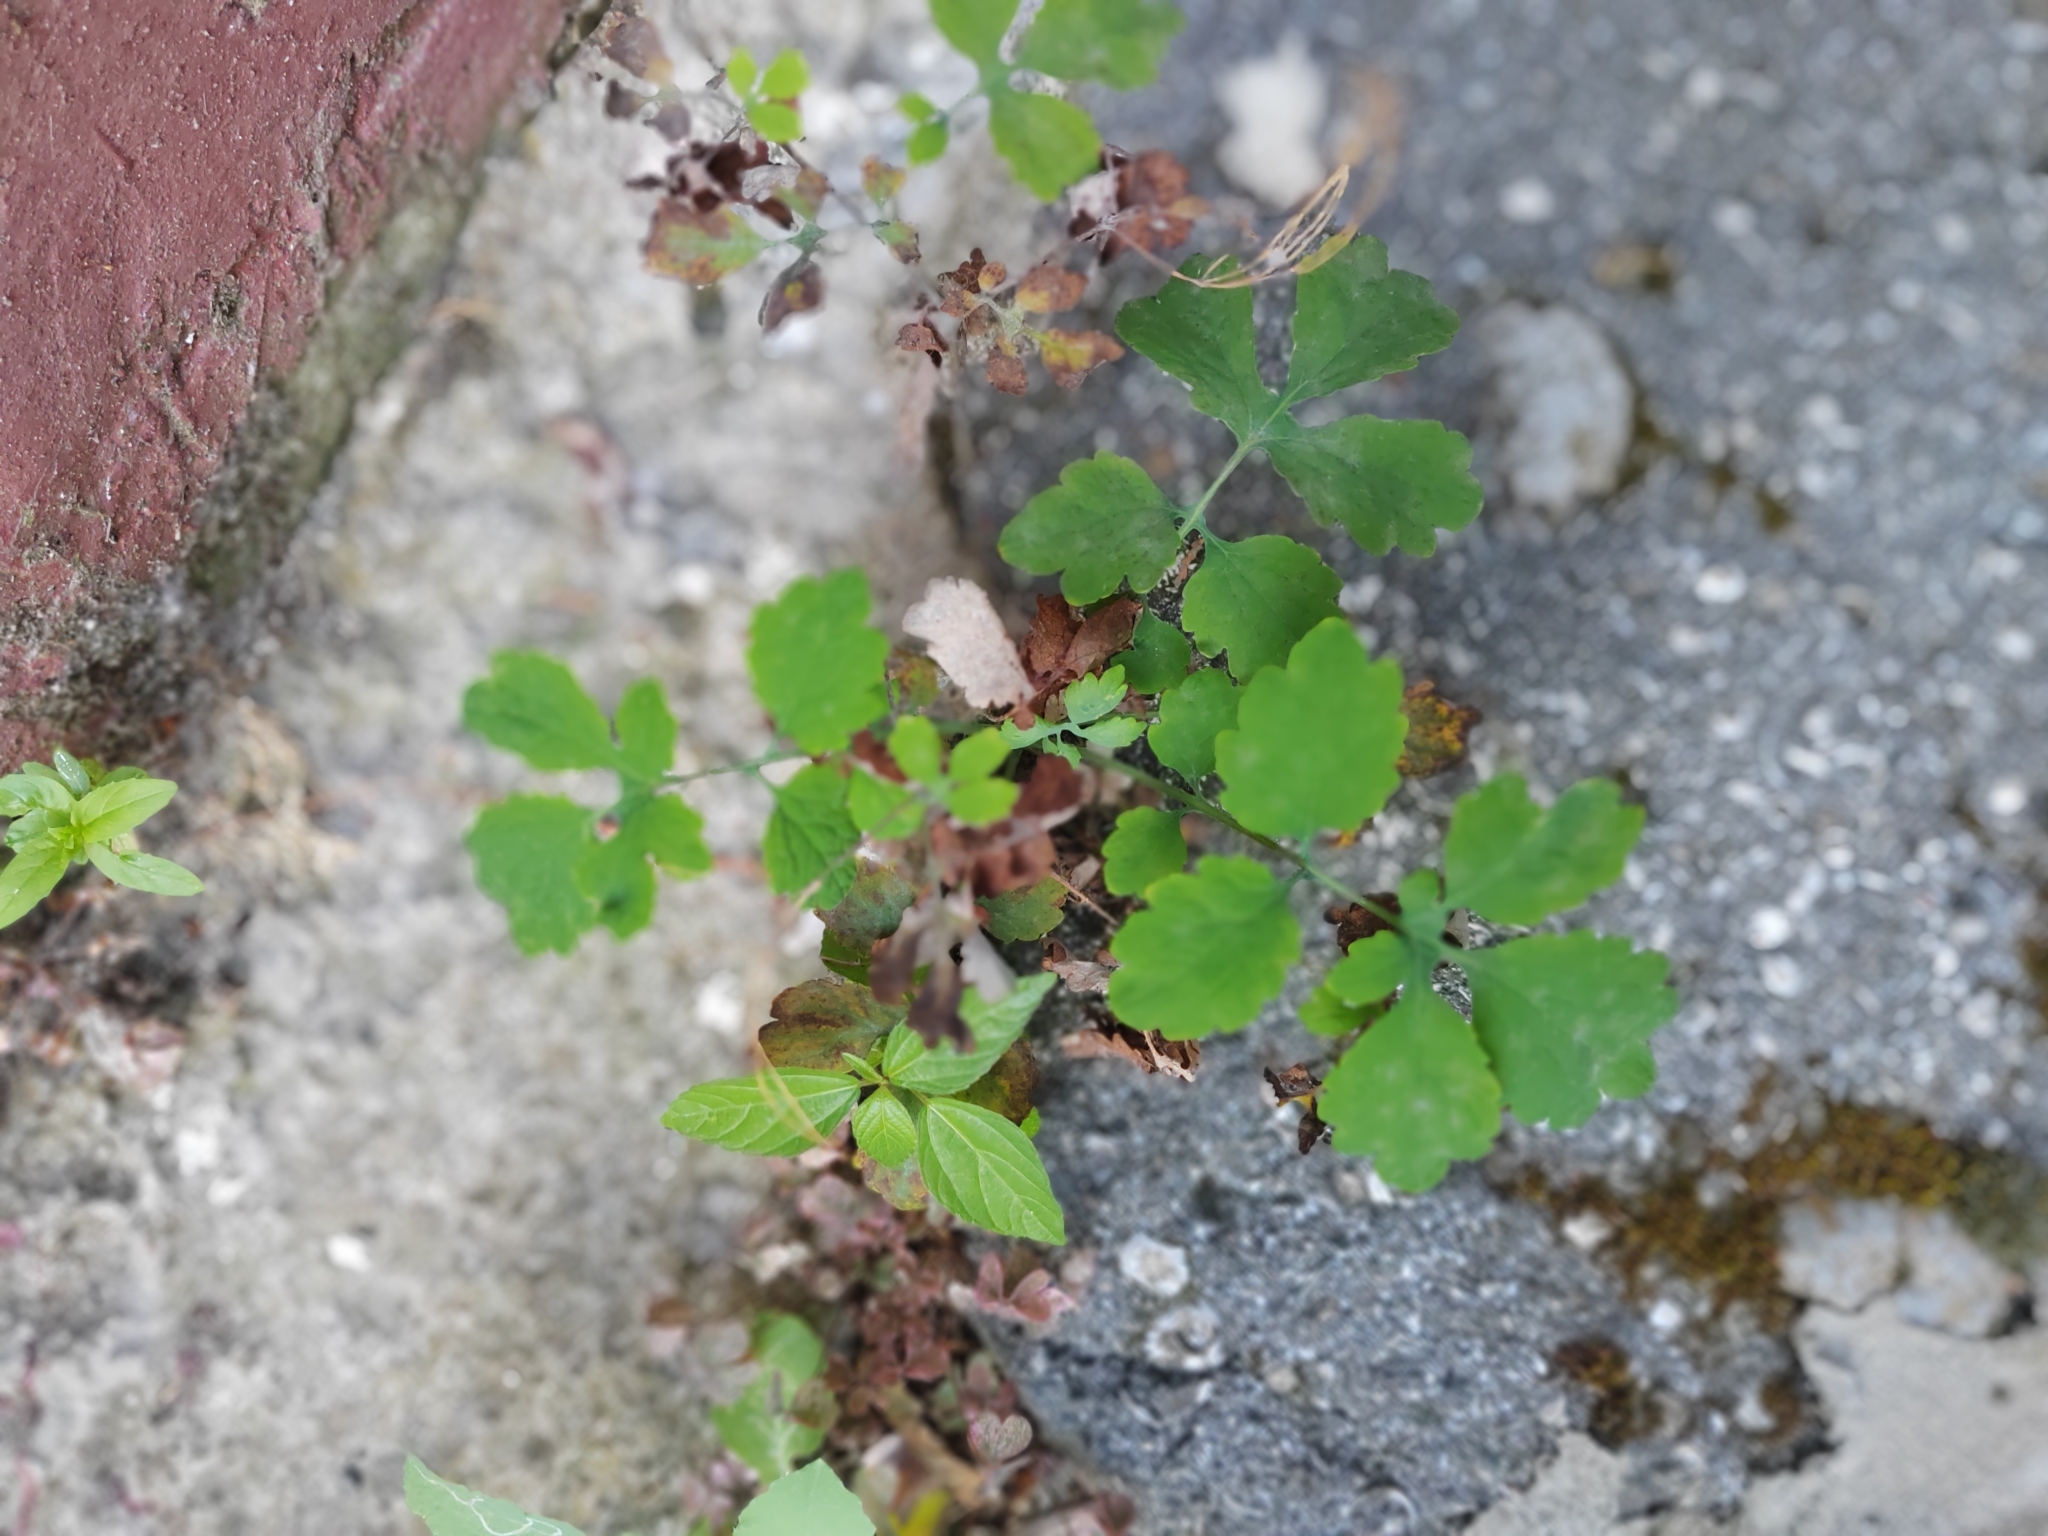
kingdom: Plantae
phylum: Tracheophyta
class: Magnoliopsida
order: Ranunculales
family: Papaveraceae
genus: Chelidonium
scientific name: Chelidonium majus
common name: Greater celandine
